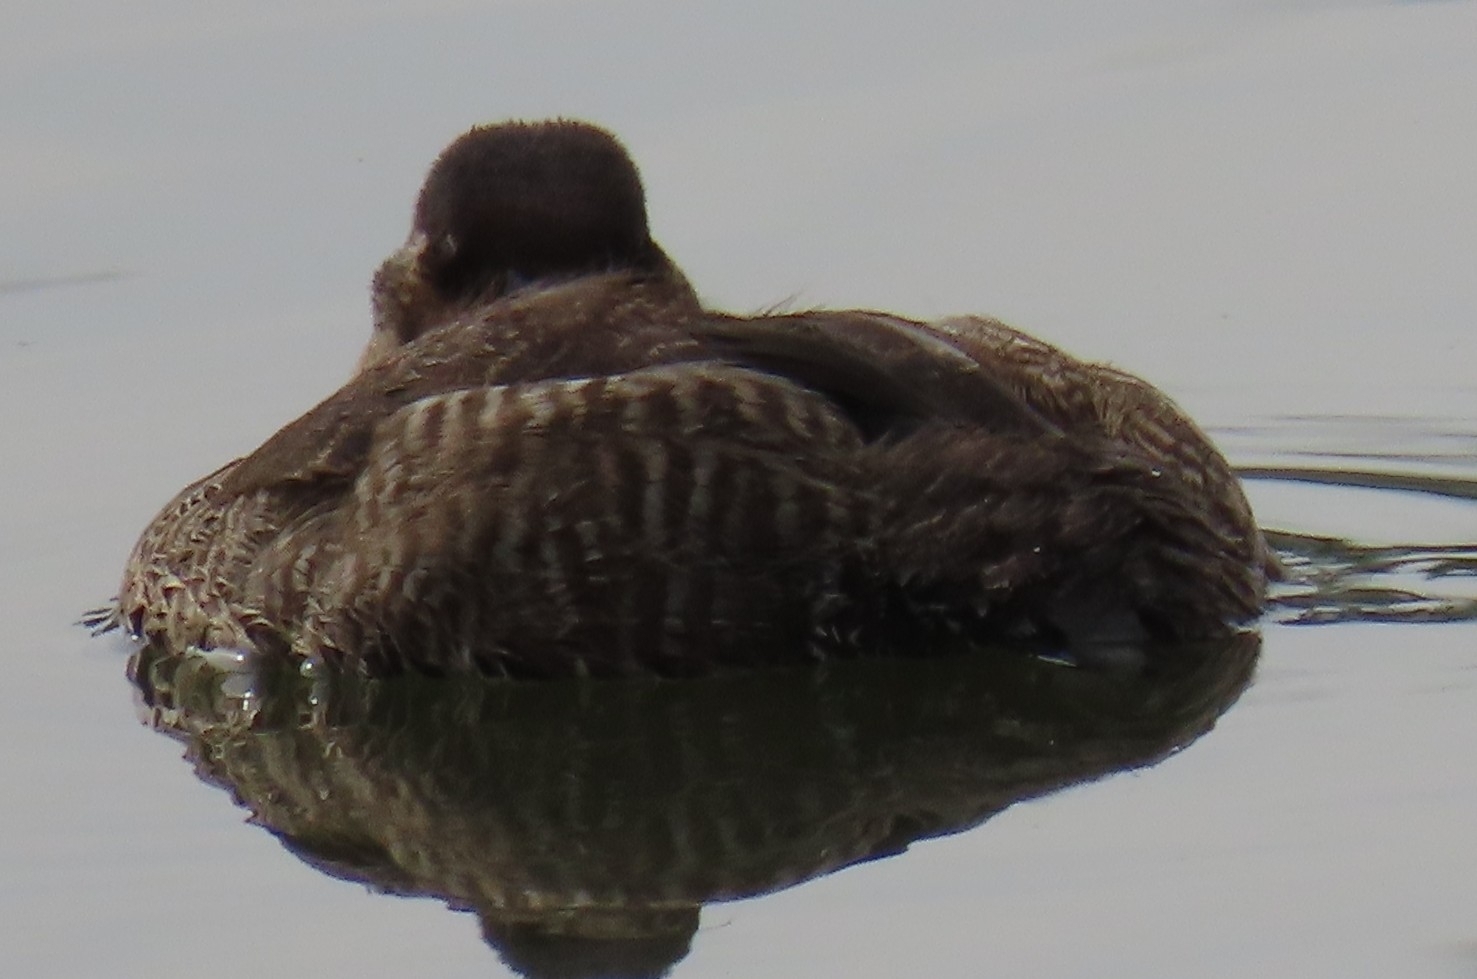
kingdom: Animalia
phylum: Chordata
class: Aves
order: Anseriformes
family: Anatidae
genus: Oxyura
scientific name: Oxyura jamaicensis
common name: Ruddy duck
